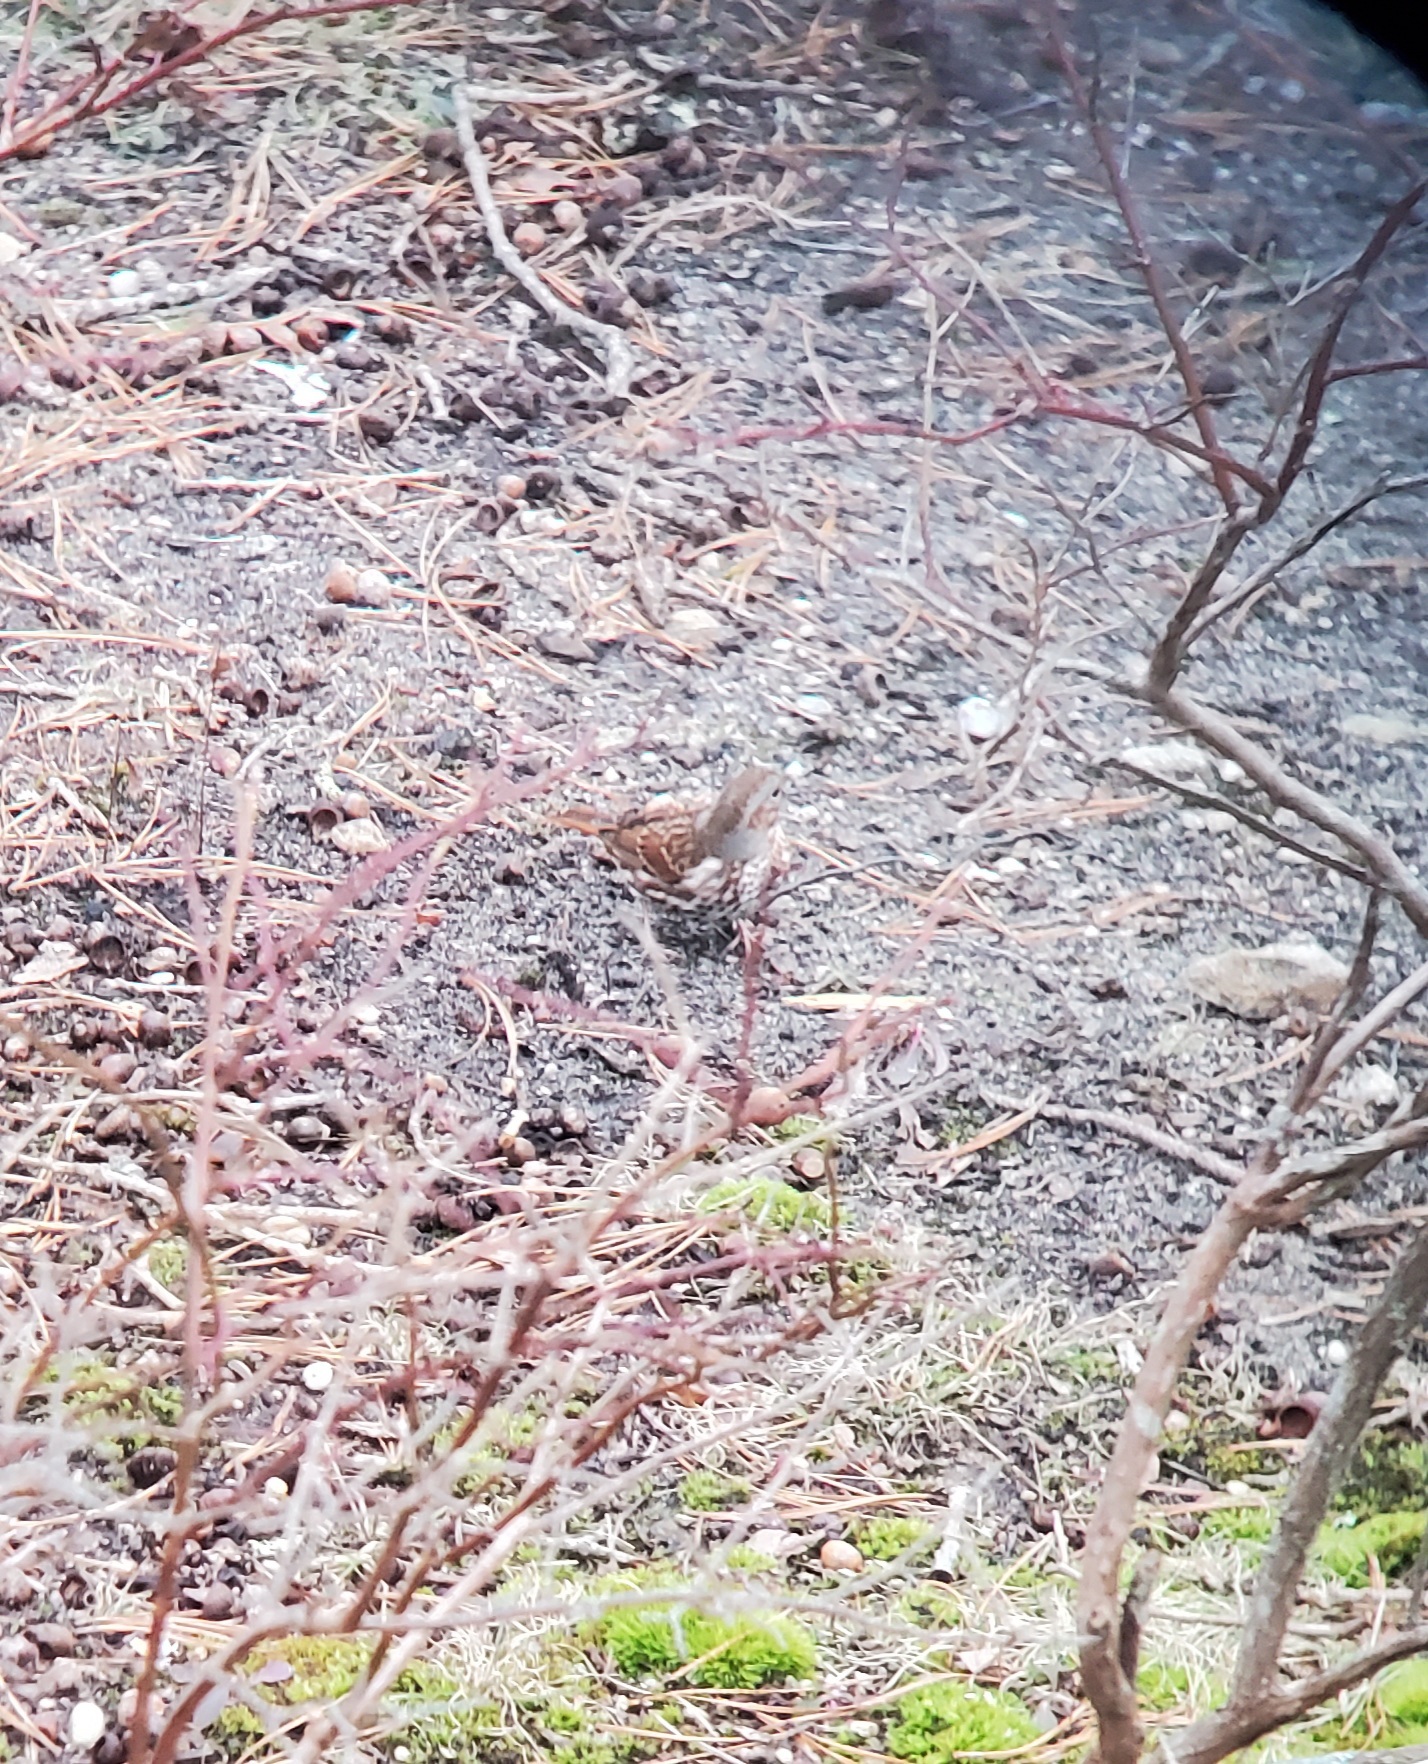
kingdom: Animalia
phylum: Chordata
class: Aves
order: Passeriformes
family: Passerellidae
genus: Passerella
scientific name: Passerella iliaca
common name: Fox sparrow
